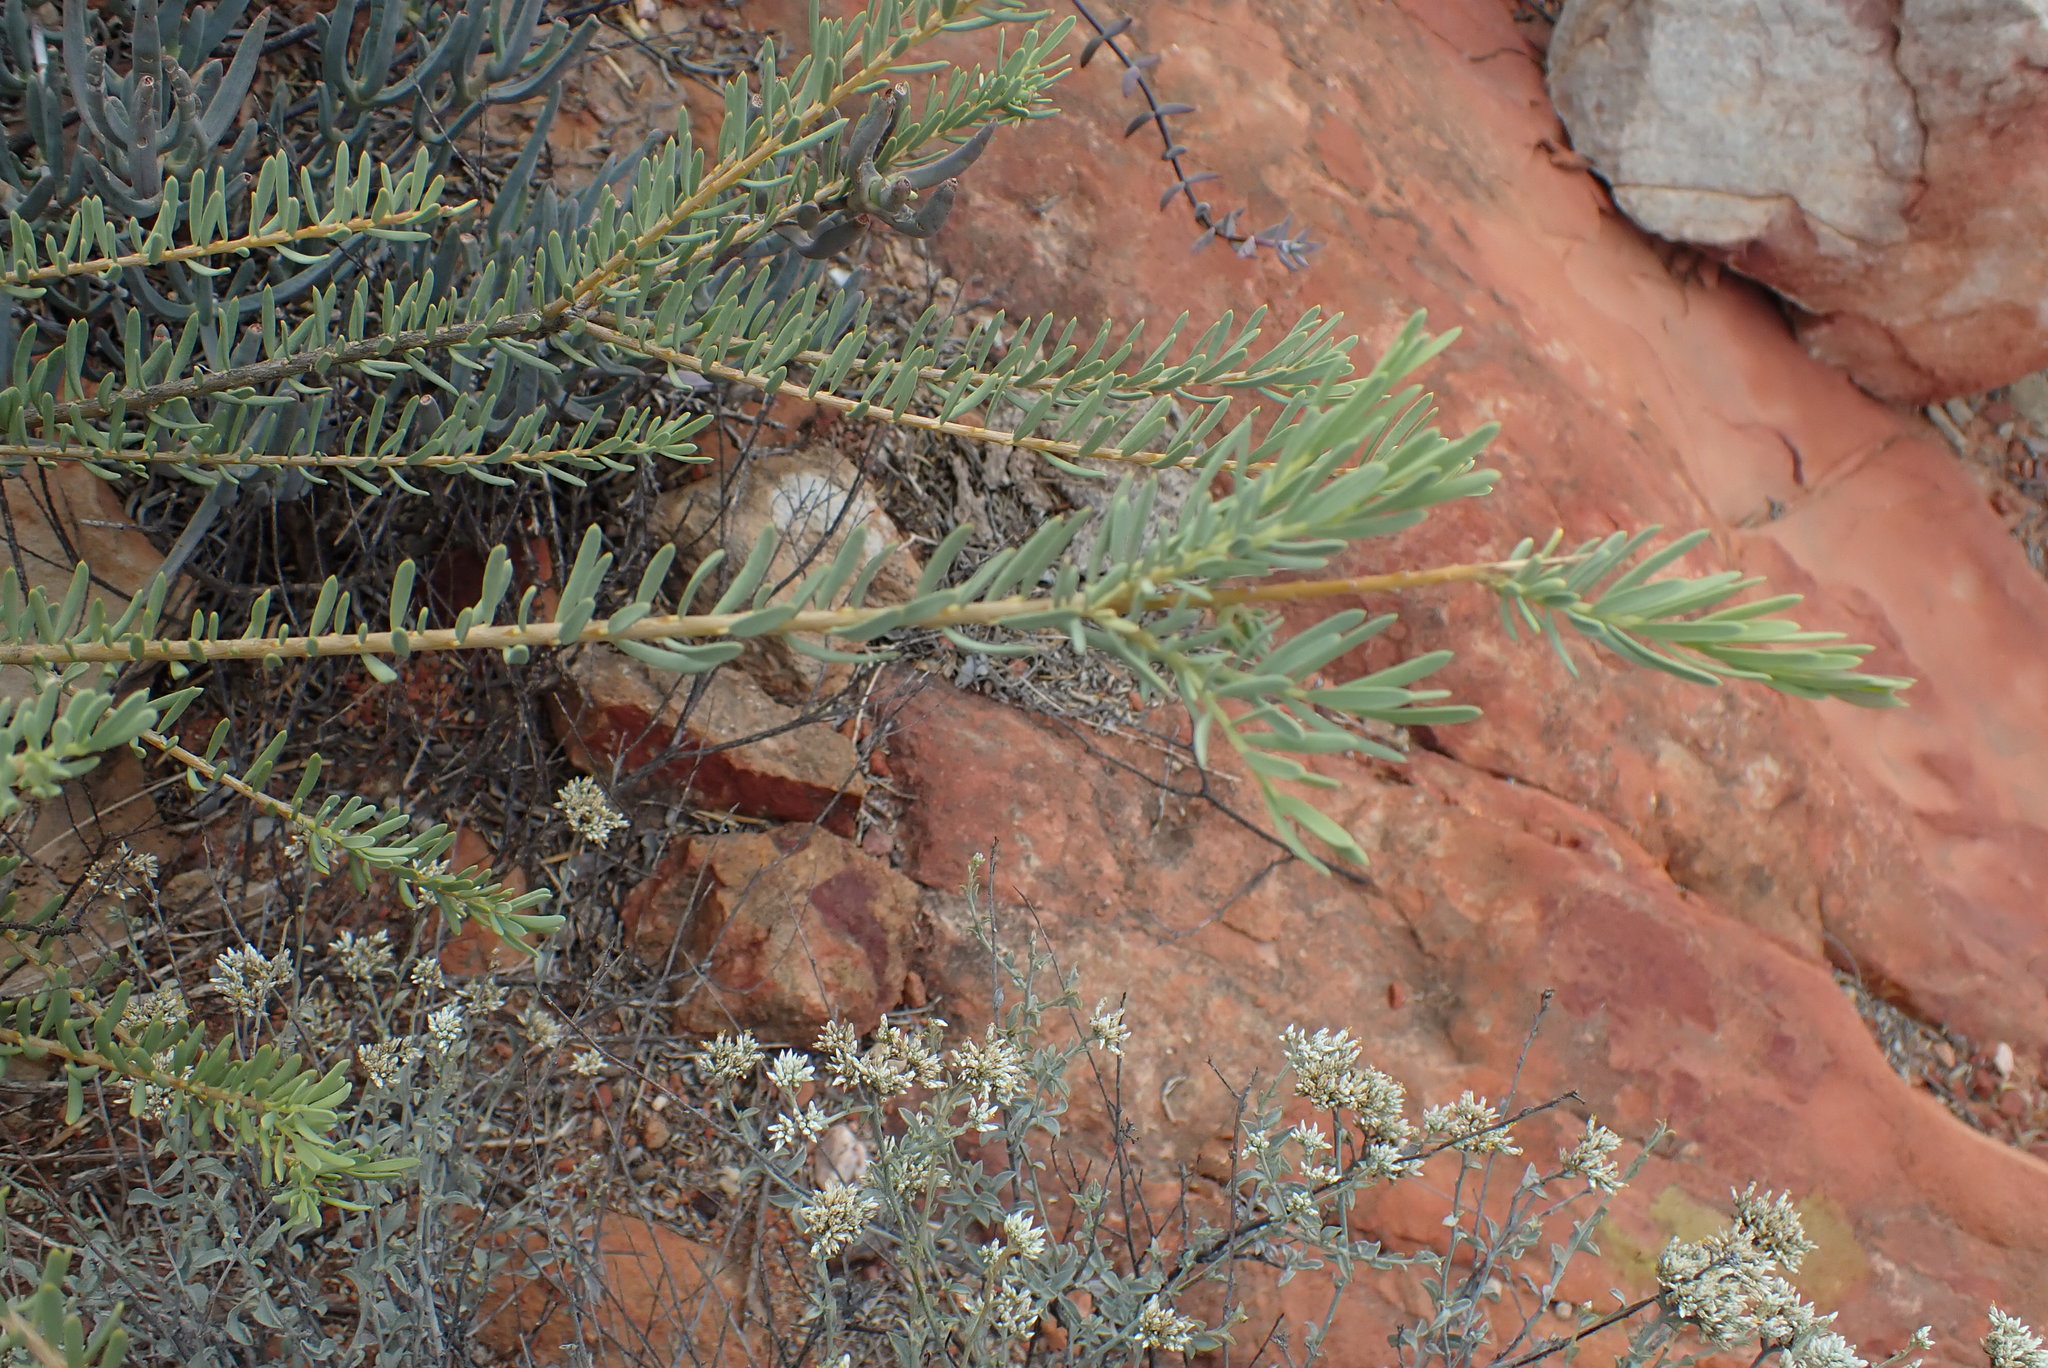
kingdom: Plantae
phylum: Tracheophyta
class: Magnoliopsida
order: Fabales
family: Polygalaceae
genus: Polygala
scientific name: Polygala myrtifolia
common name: Myrtle-leaf milkwort
